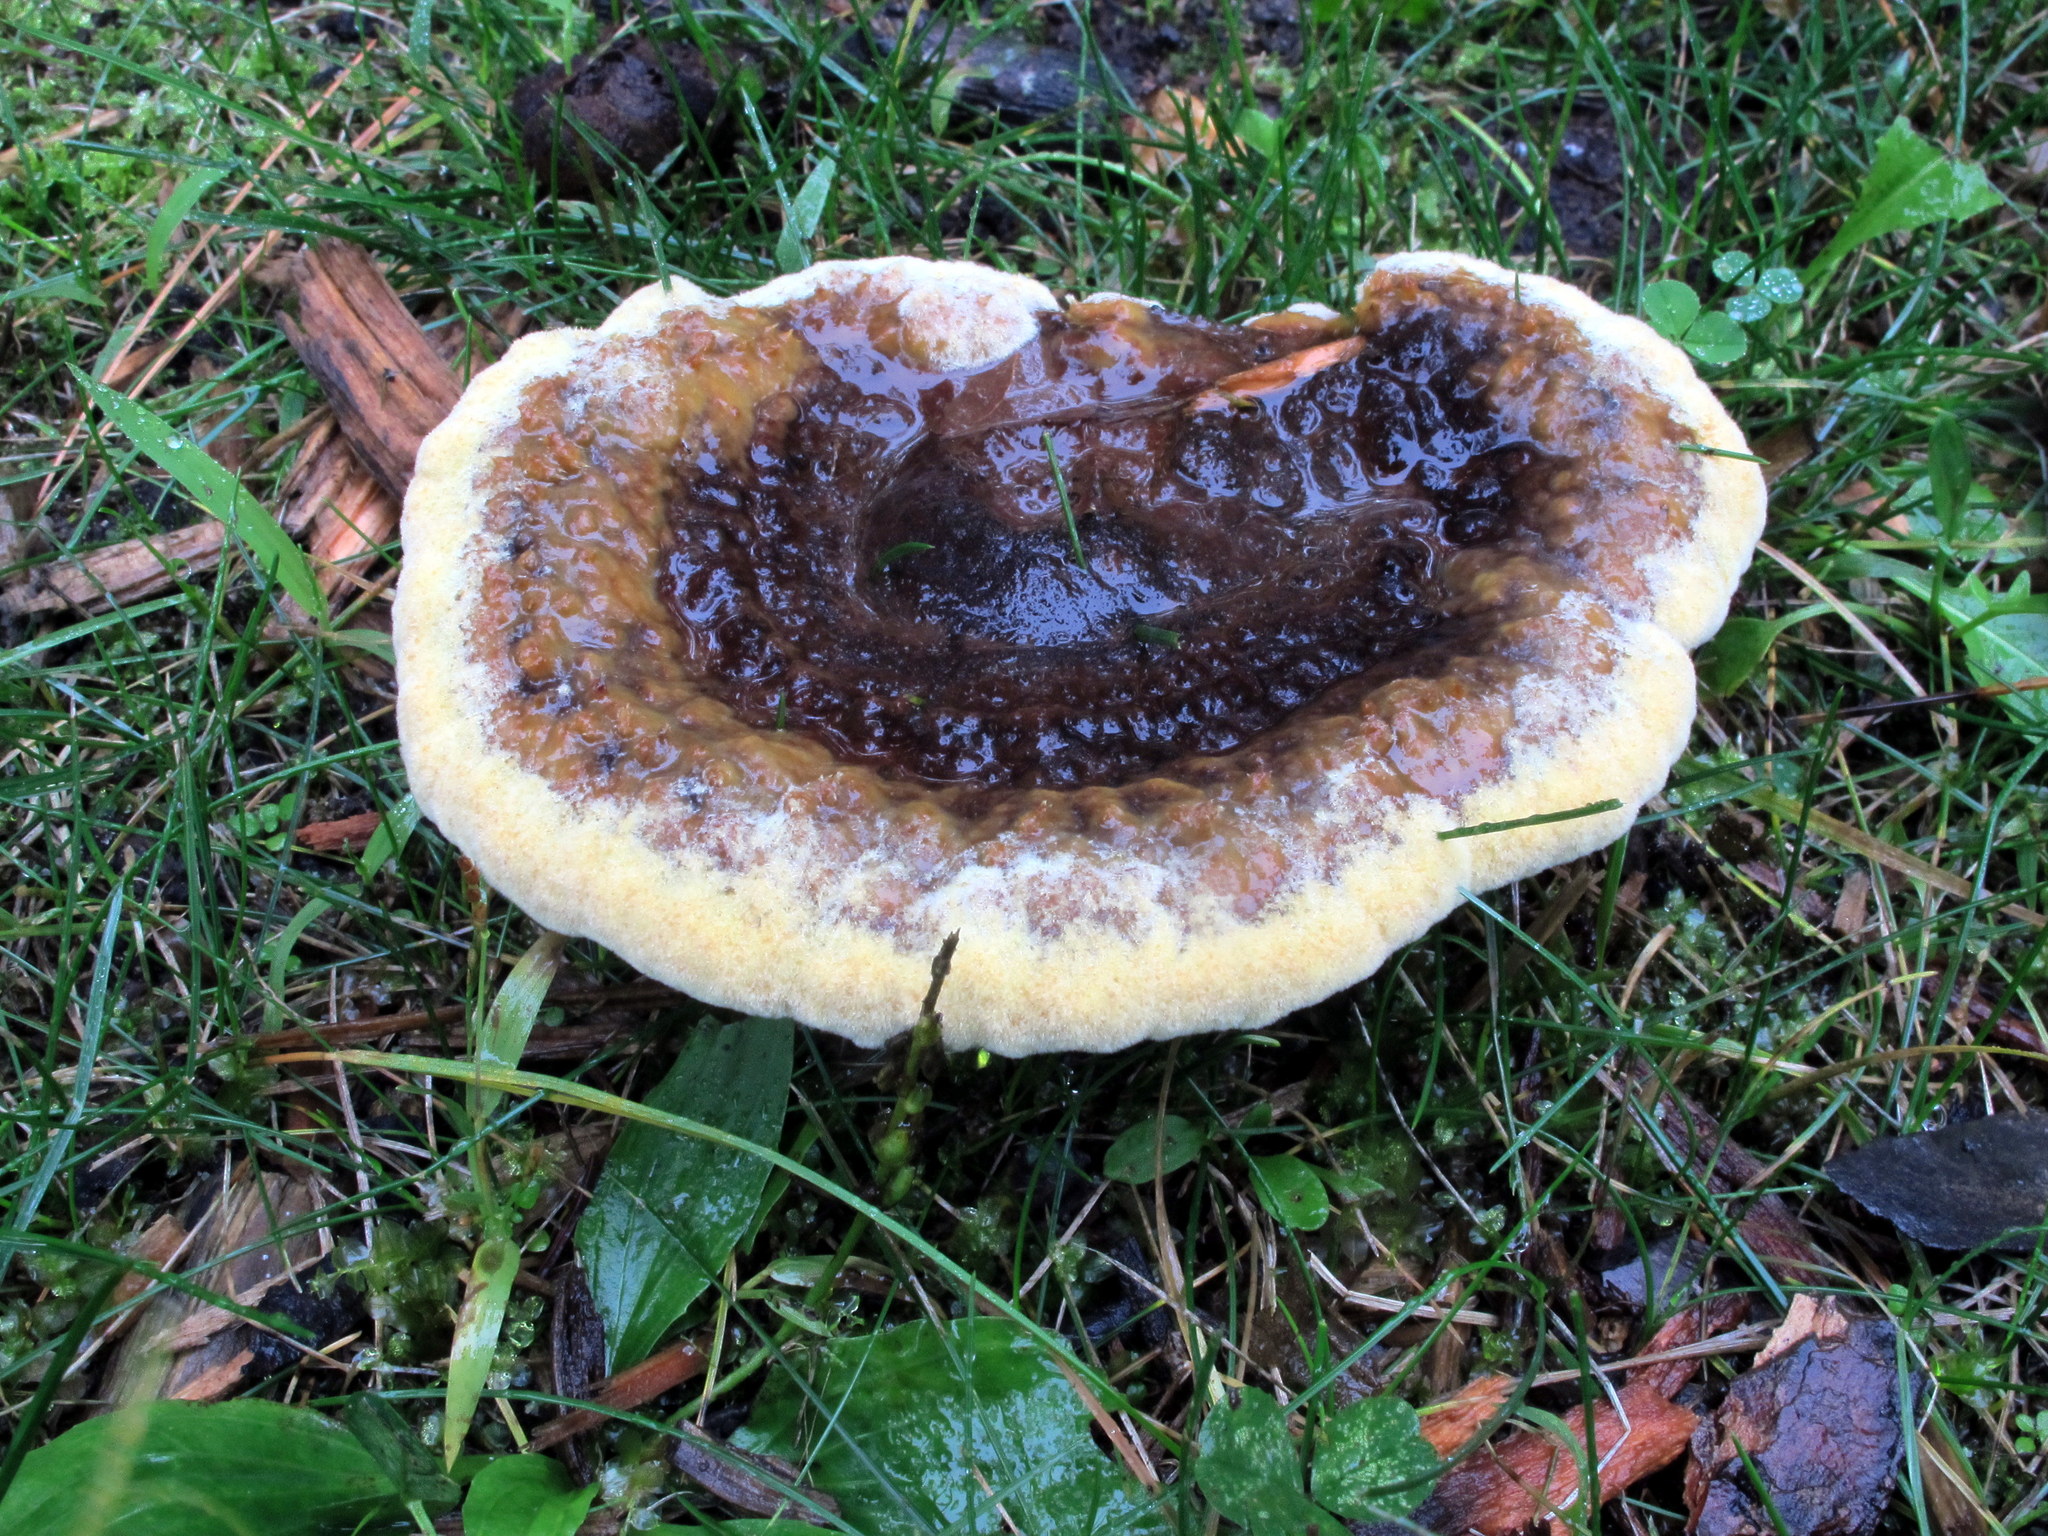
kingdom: Fungi
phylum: Basidiomycota
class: Agaricomycetes
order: Polyporales
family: Laetiporaceae
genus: Phaeolus
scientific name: Phaeolus schweinitzii
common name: Dyer's mazegill
